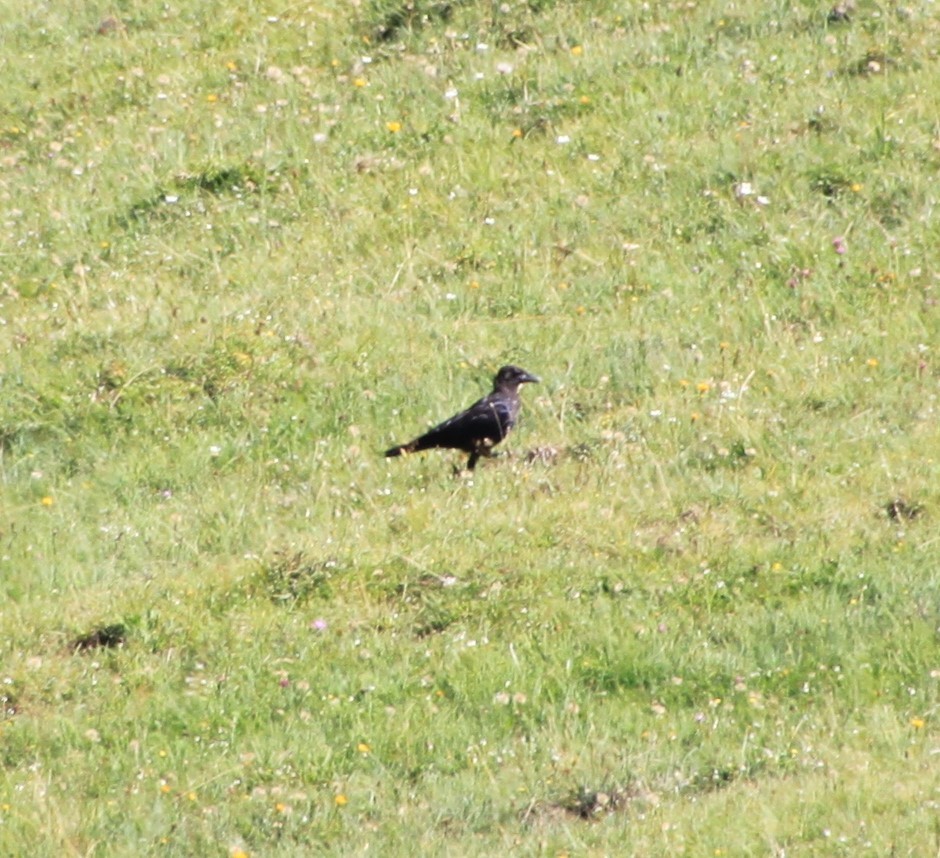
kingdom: Animalia
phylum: Chordata
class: Aves
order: Passeriformes
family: Corvidae
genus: Corvus
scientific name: Corvus corone
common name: Carrion crow
